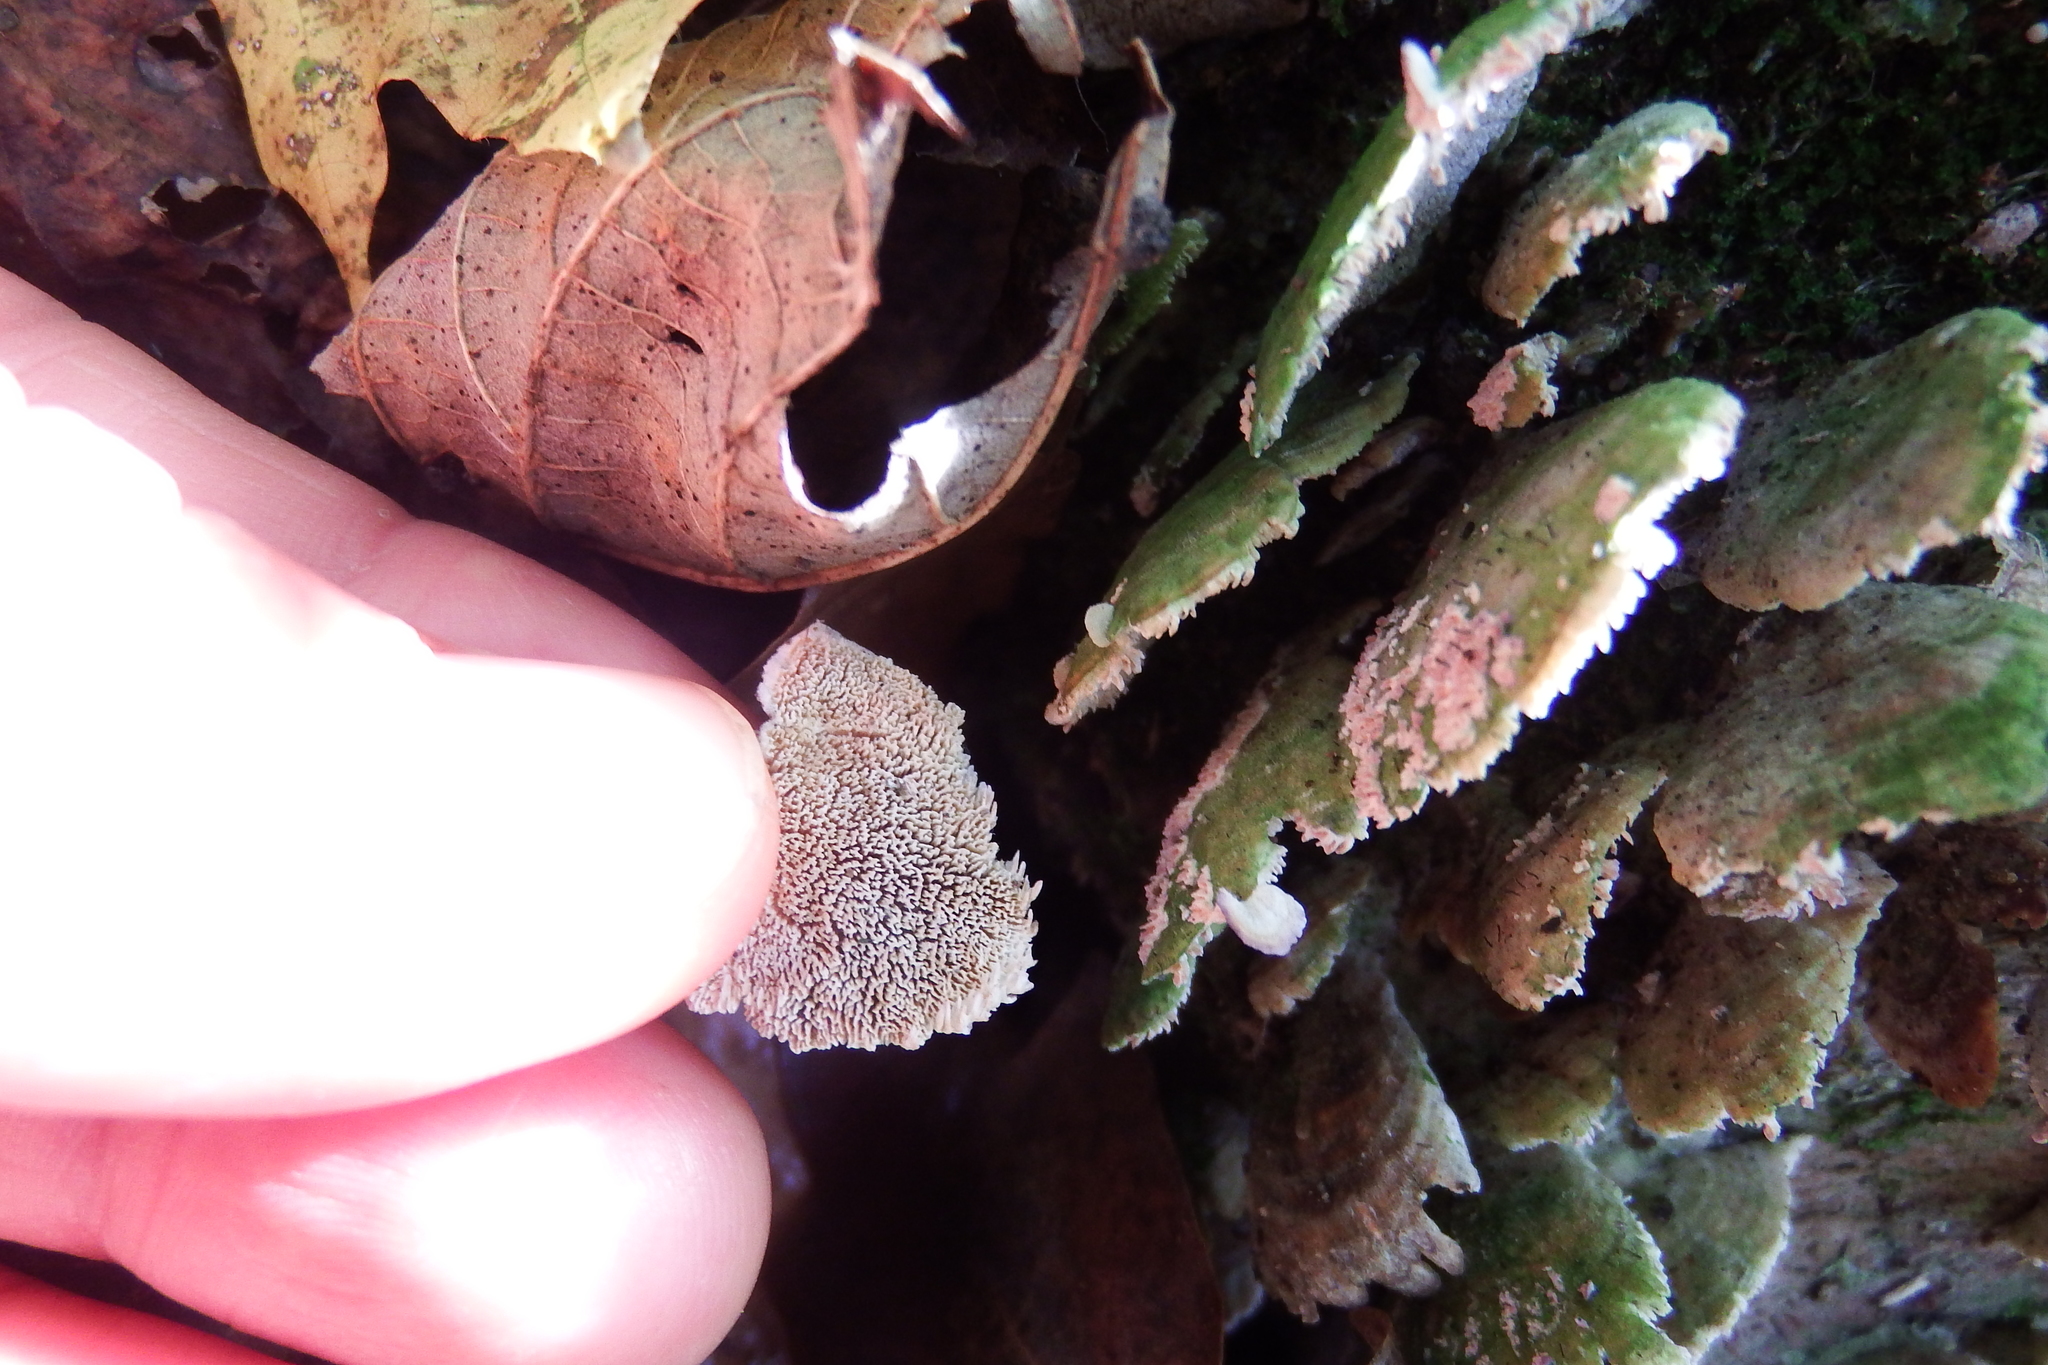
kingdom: Fungi
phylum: Basidiomycota
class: Agaricomycetes
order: Hymenochaetales
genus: Trichaptum
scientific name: Trichaptum biforme
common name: Violet-toothed polypore
